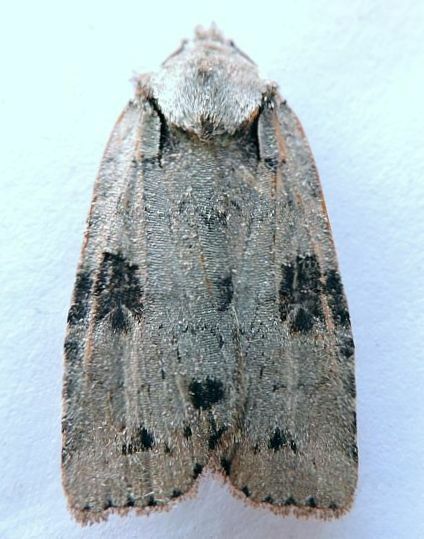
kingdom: Animalia
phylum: Arthropoda
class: Insecta
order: Lepidoptera
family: Noctuidae
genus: Lithophane
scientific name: Lithophane querquera
